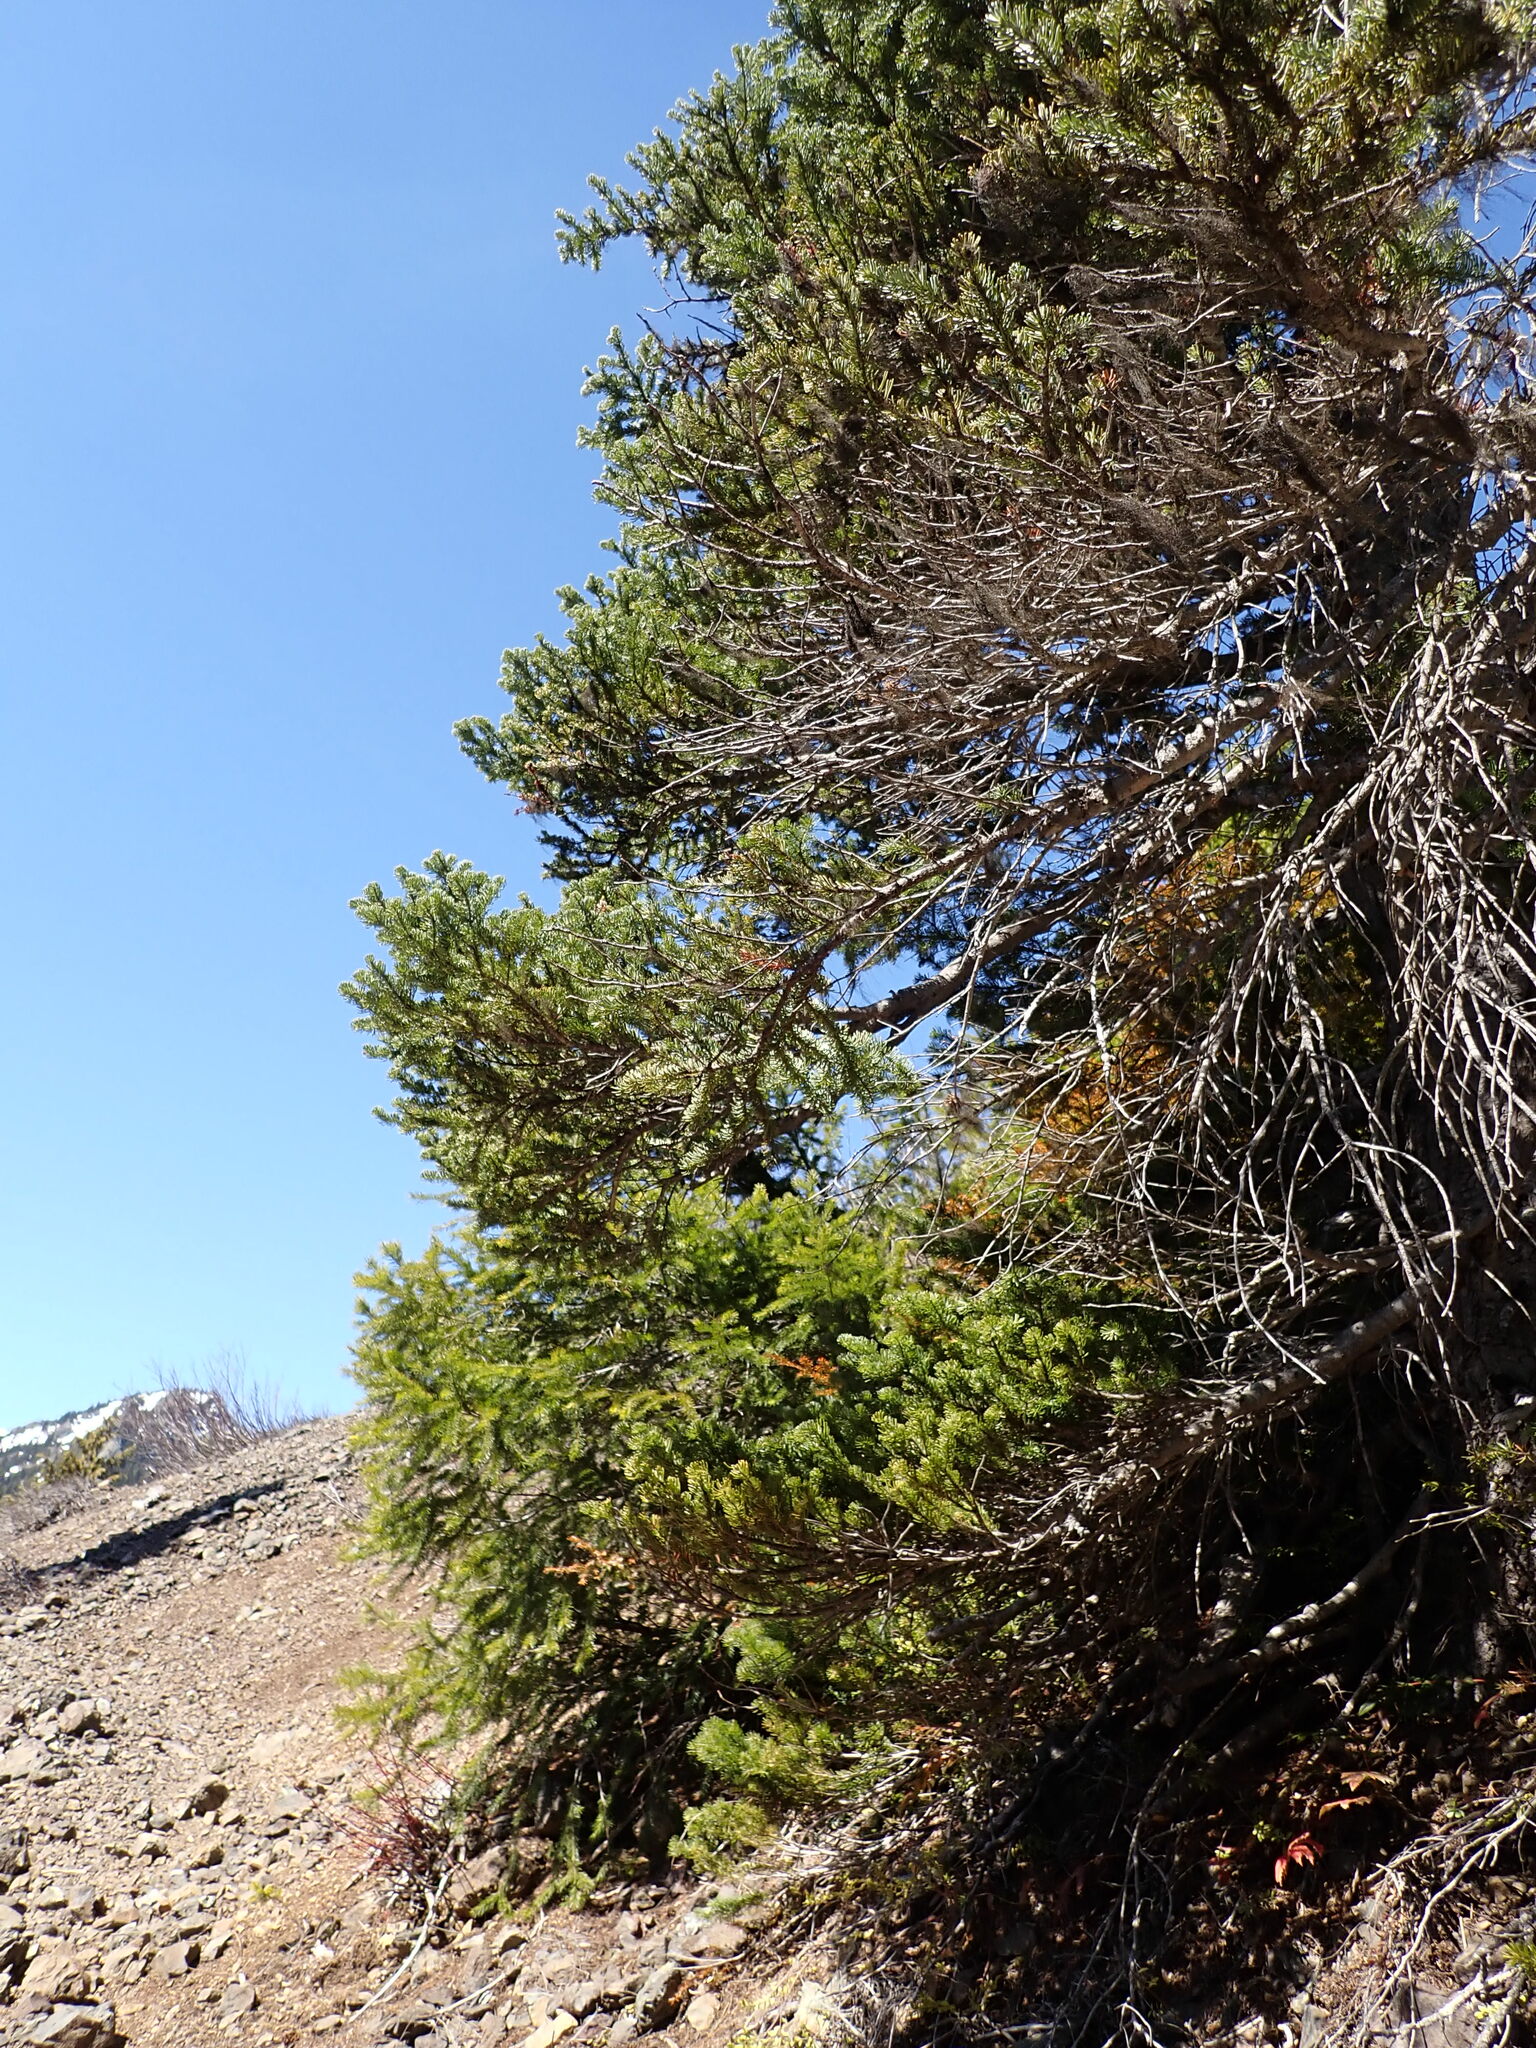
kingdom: Plantae
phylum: Tracheophyta
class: Pinopsida
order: Pinales
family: Pinaceae
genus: Abies
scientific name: Abies lasiocarpa
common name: Subalpine fir
